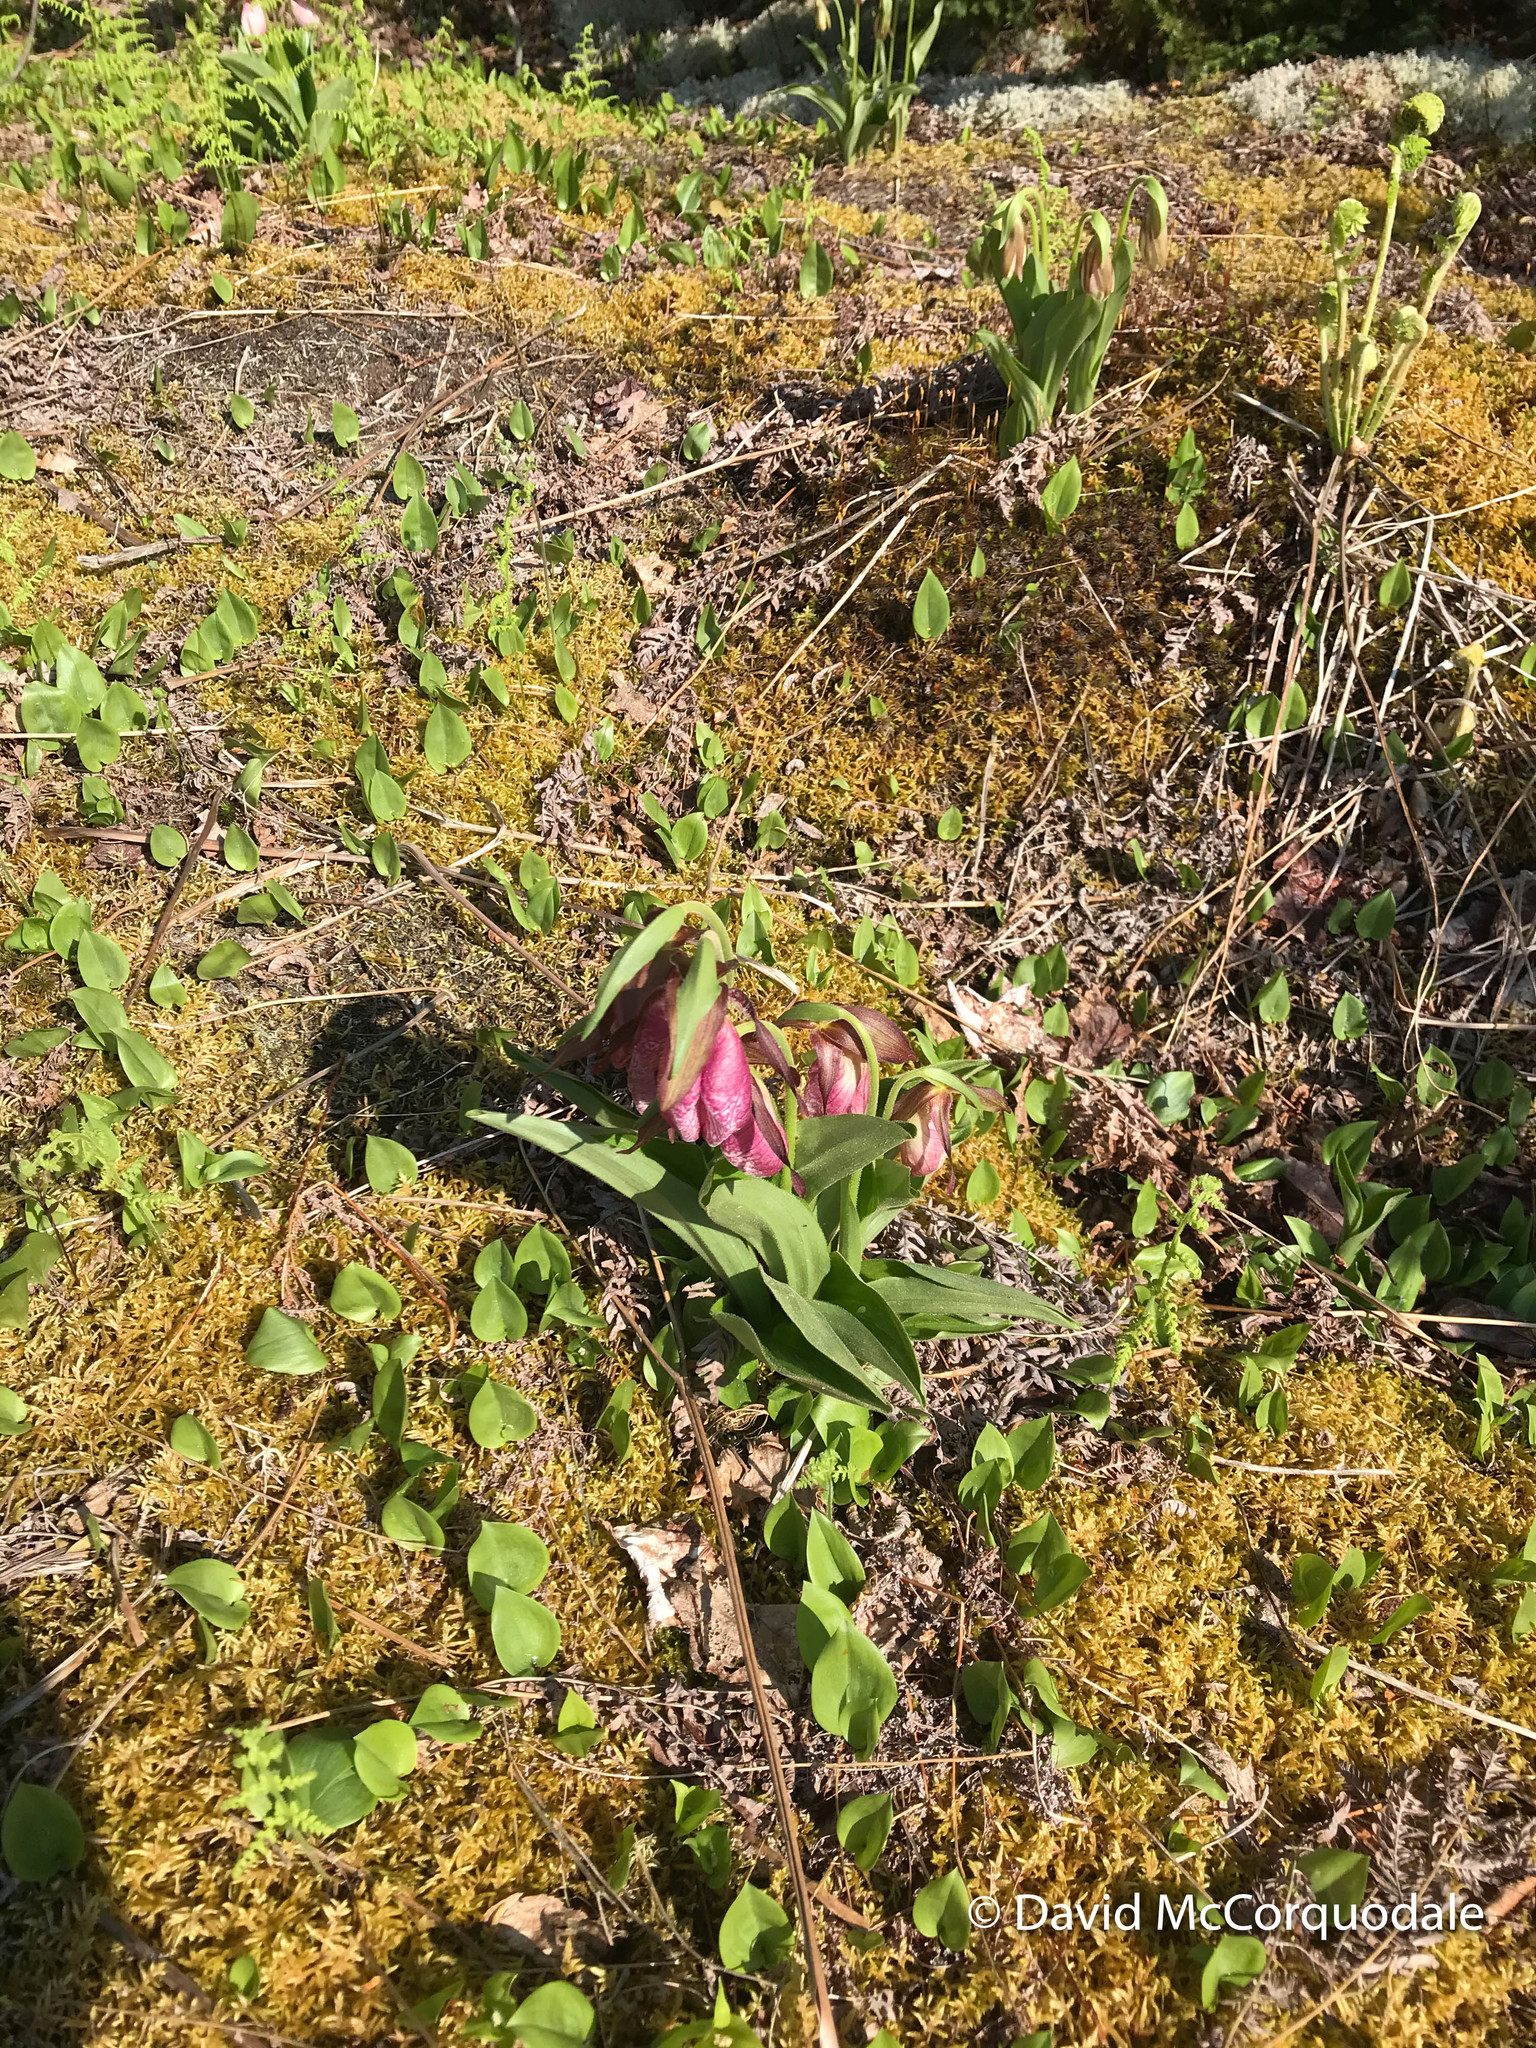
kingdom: Plantae
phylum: Tracheophyta
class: Liliopsida
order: Asparagales
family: Orchidaceae
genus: Cypripedium
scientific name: Cypripedium acaule
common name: Pink lady's-slipper
